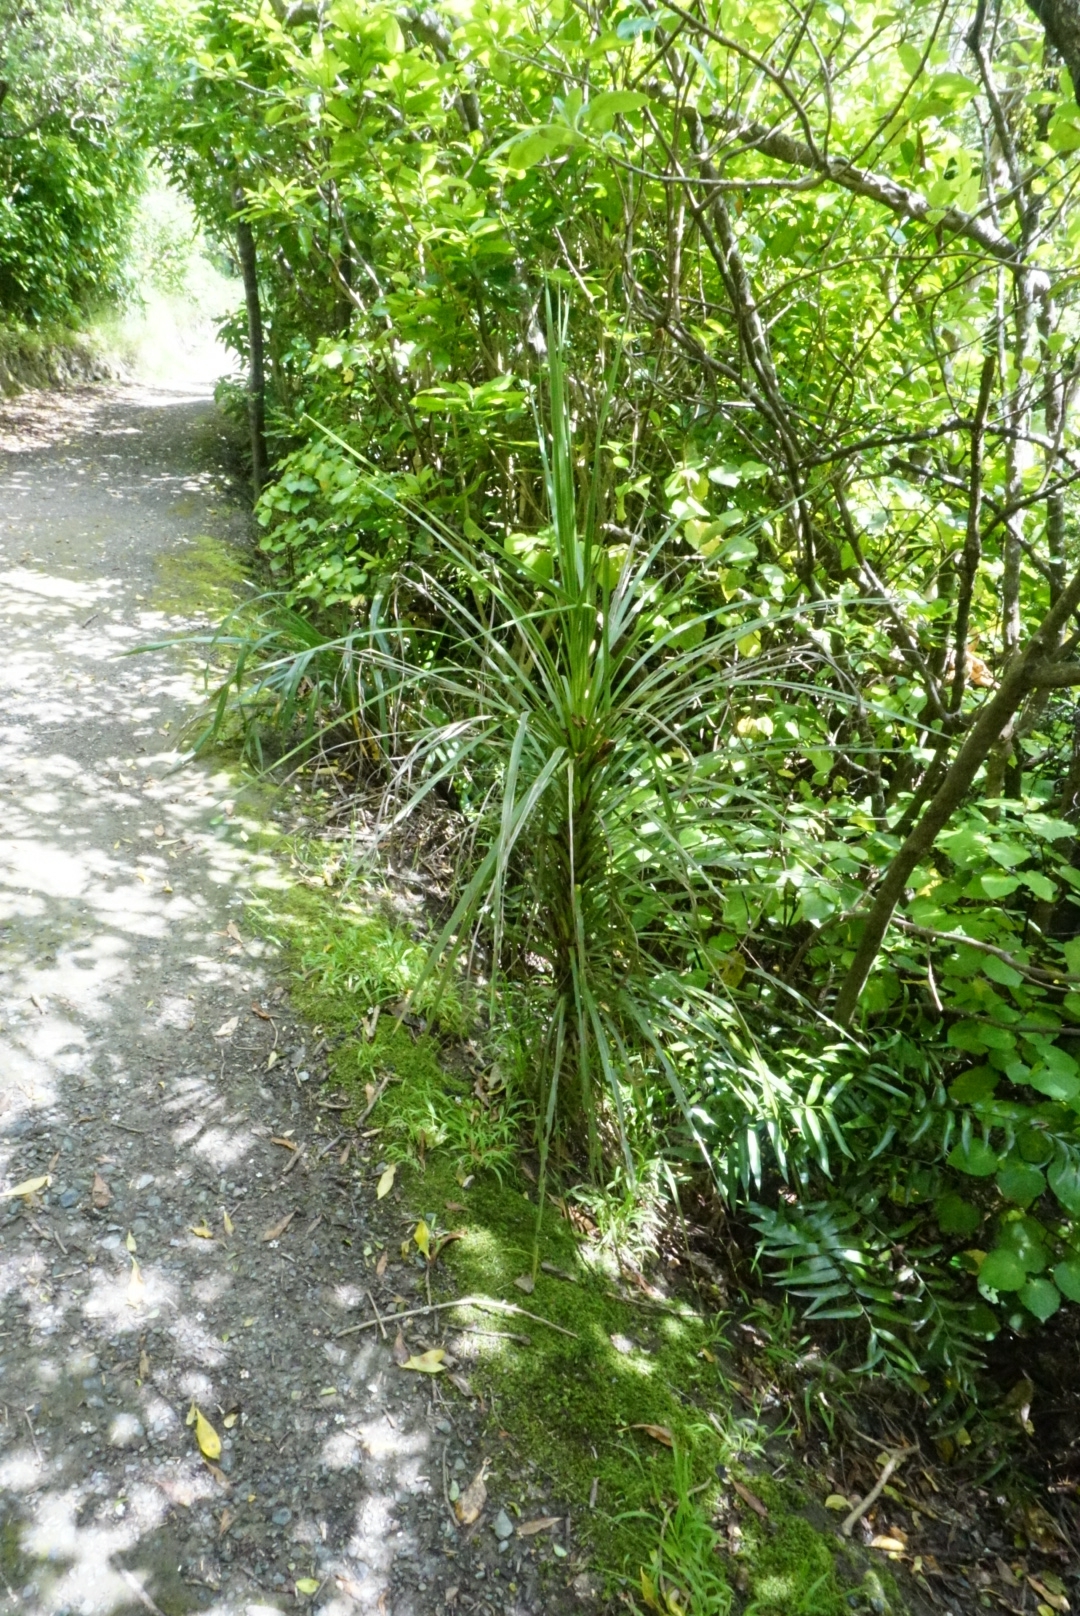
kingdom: Plantae
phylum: Tracheophyta
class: Liliopsida
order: Asparagales
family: Asparagaceae
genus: Cordyline
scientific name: Cordyline australis
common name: Cabbage-palm
